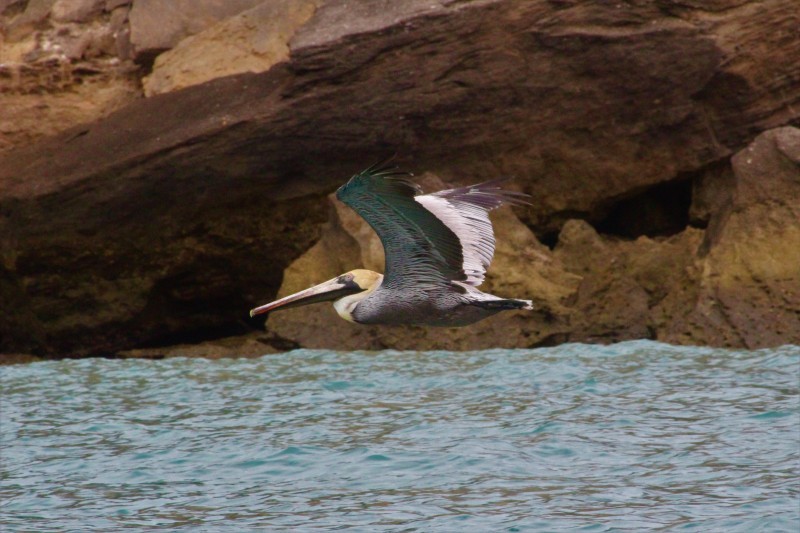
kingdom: Animalia
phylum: Chordata
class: Aves
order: Pelecaniformes
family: Pelecanidae
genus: Pelecanus
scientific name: Pelecanus occidentalis
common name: Brown pelican
